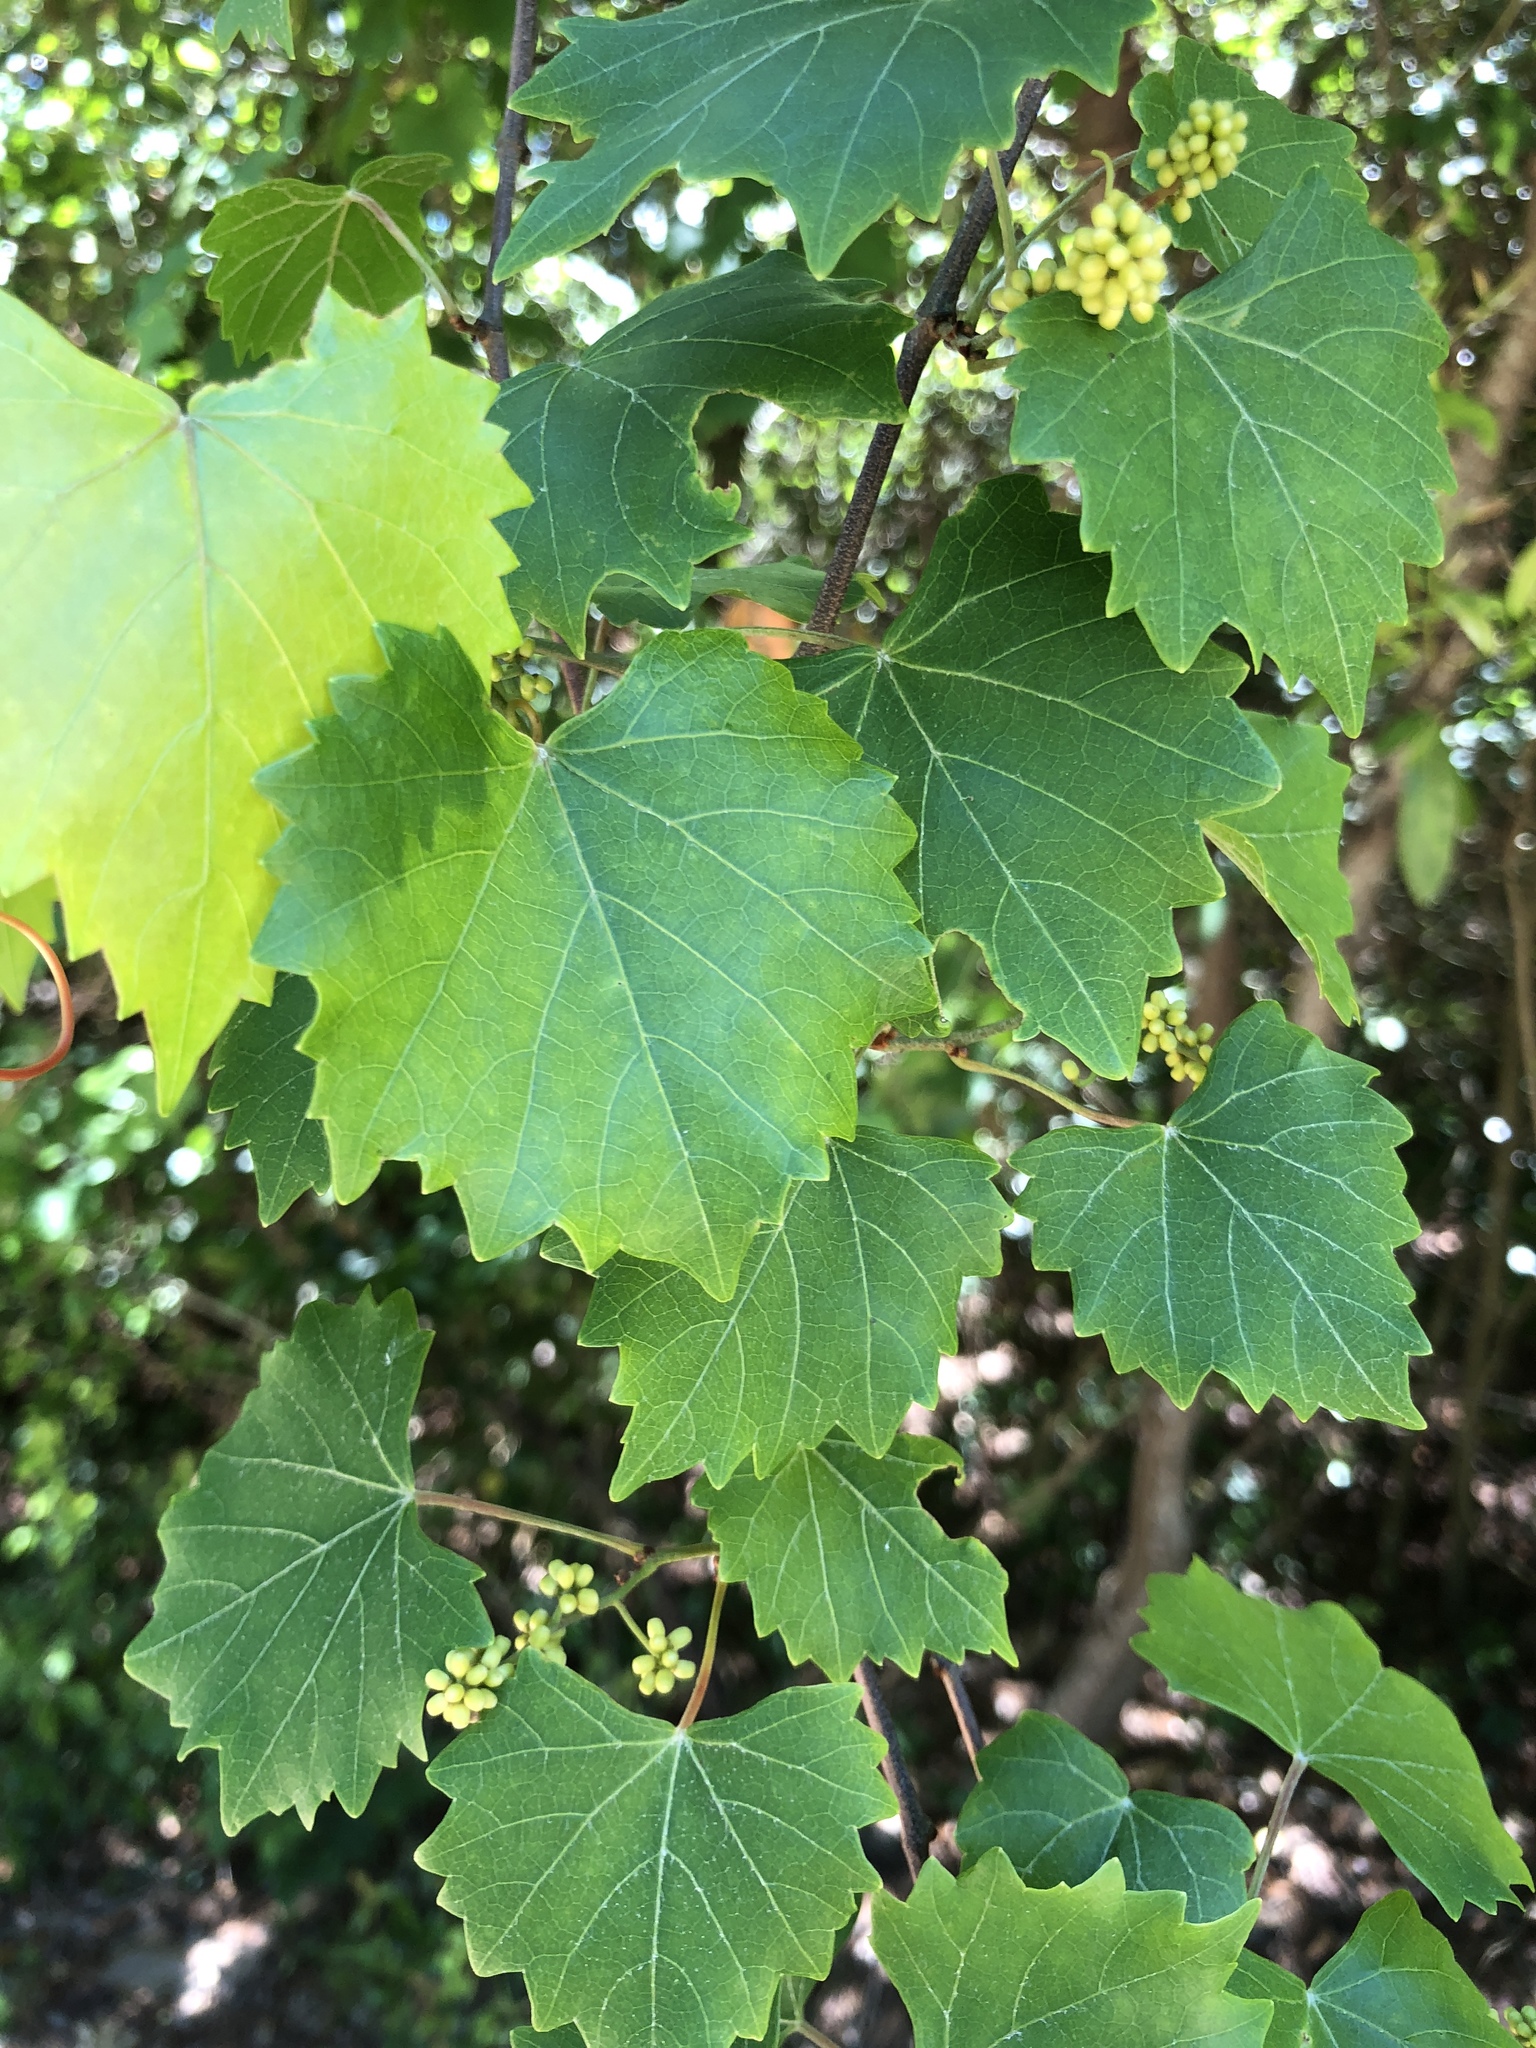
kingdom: Plantae
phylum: Tracheophyta
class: Magnoliopsida
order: Vitales
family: Vitaceae
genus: Vitis
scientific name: Vitis mustangensis
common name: Mustang grape
